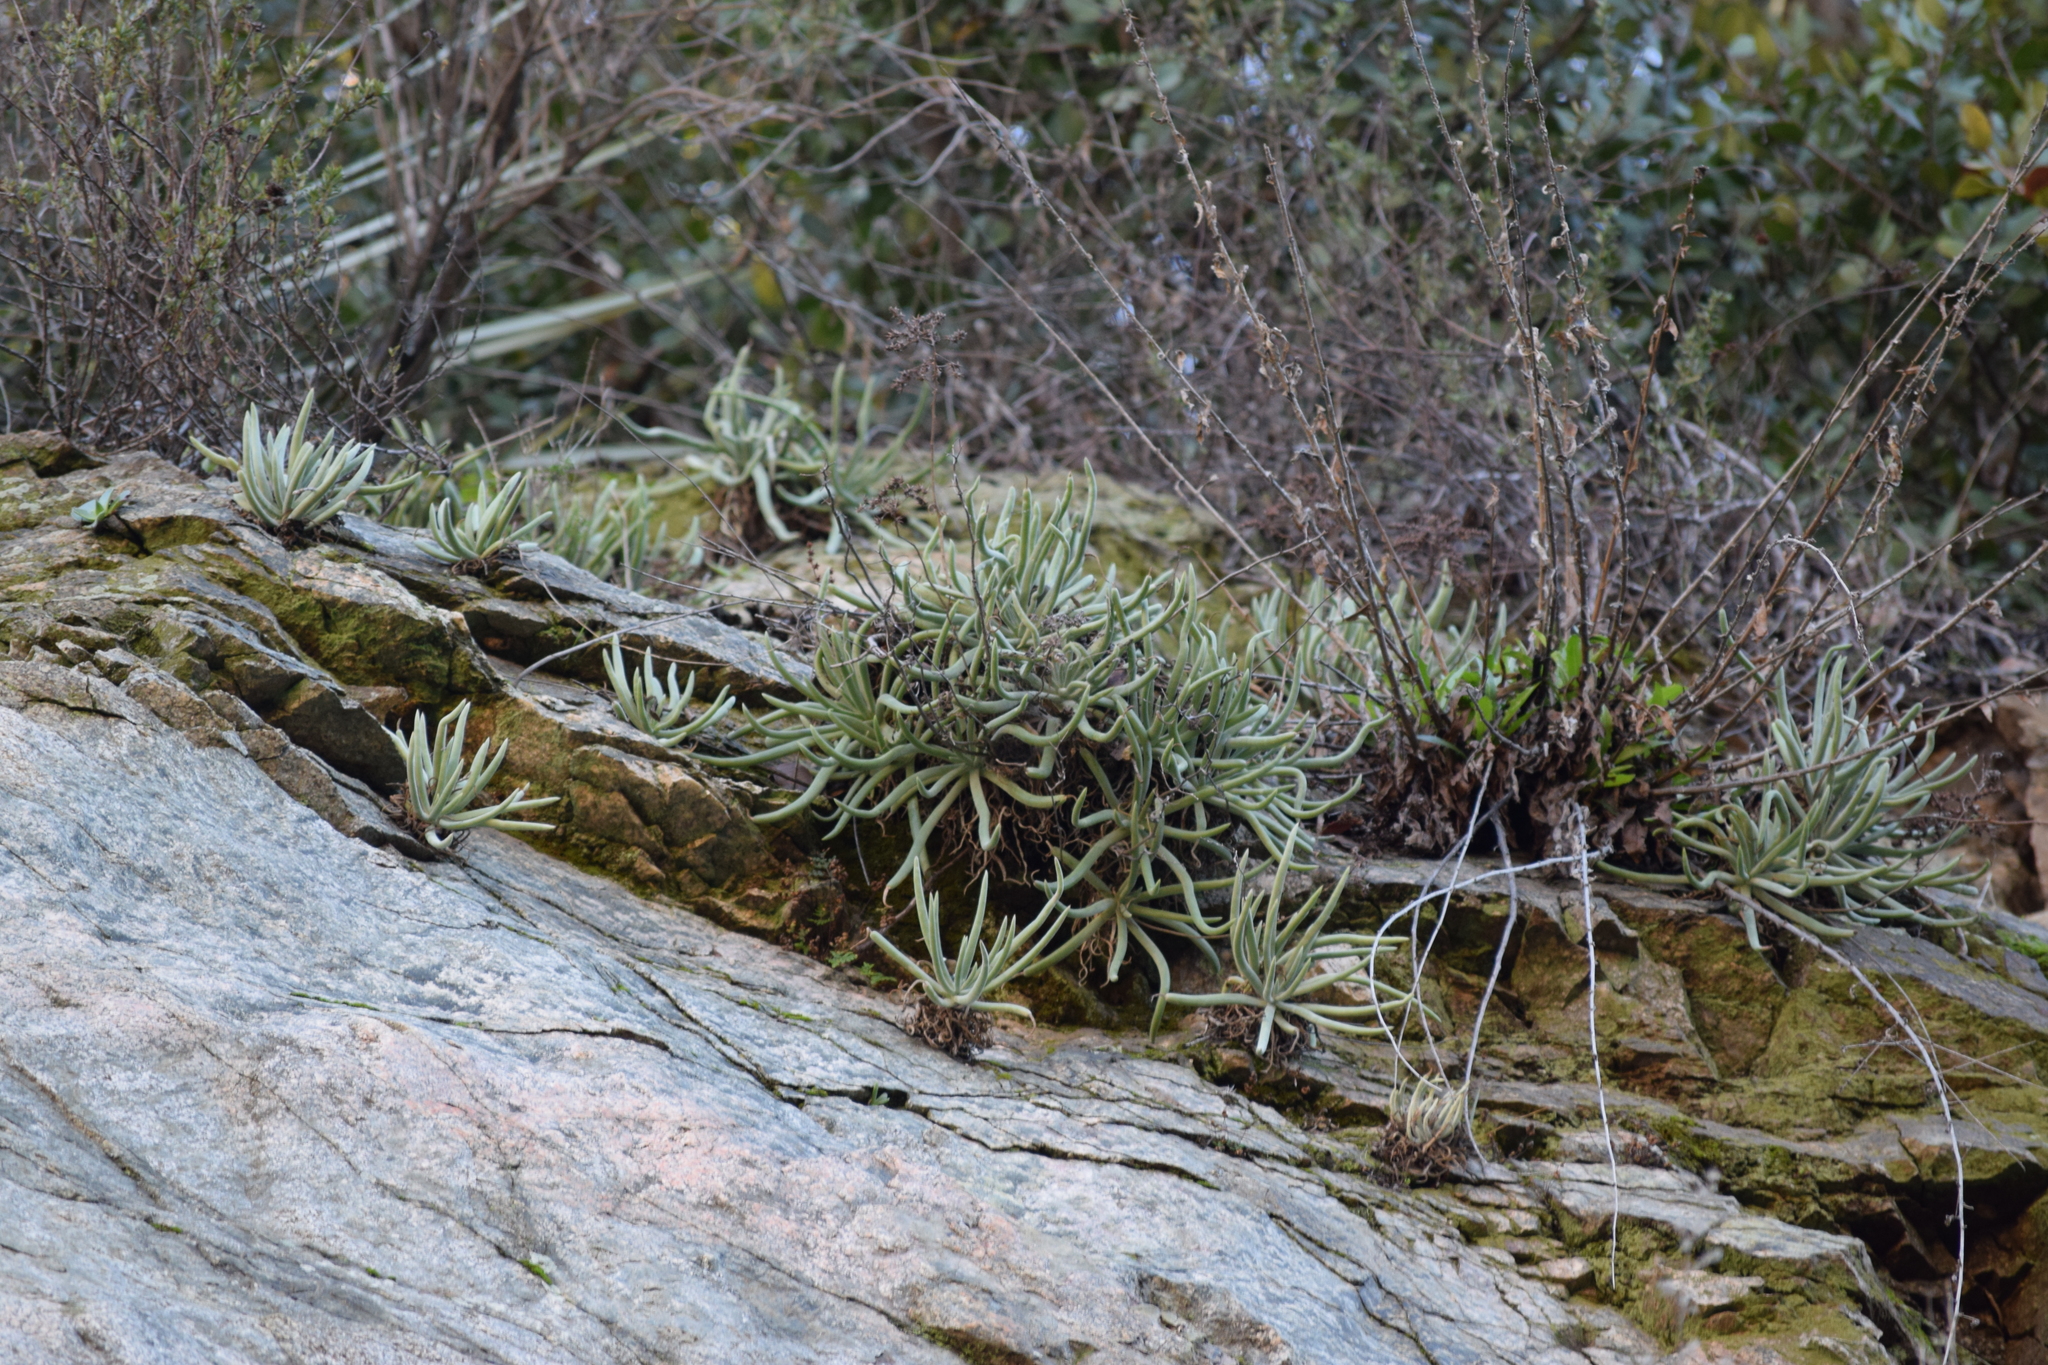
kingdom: Plantae
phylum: Tracheophyta
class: Magnoliopsida
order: Saxifragales
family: Crassulaceae
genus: Dudleya
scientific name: Dudleya densiflora
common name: San gabriel mountains dudleya
